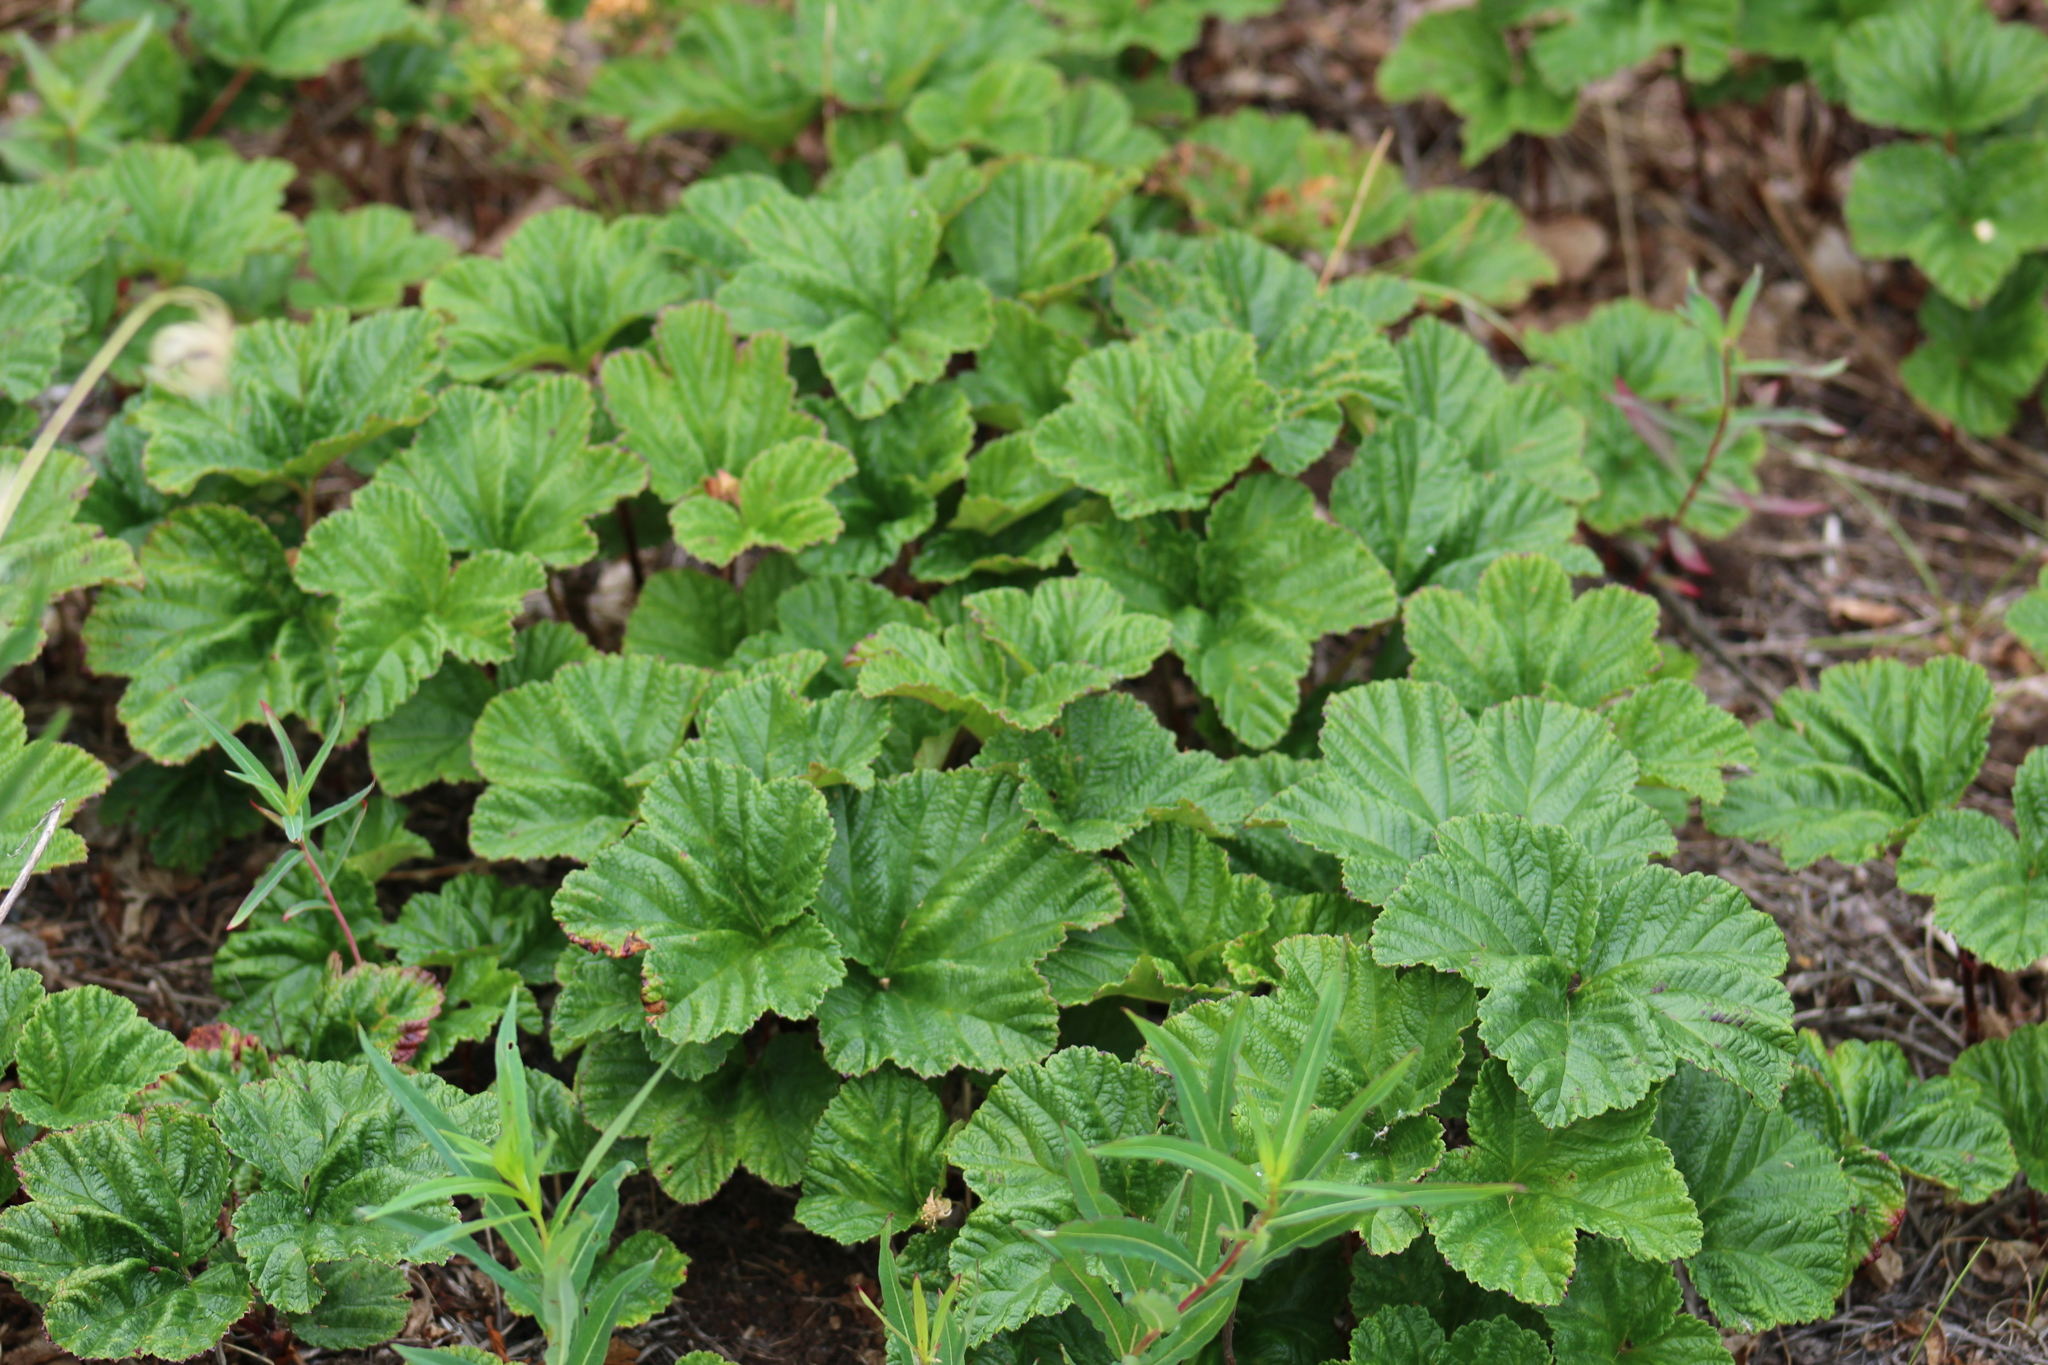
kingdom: Plantae
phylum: Tracheophyta
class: Magnoliopsida
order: Rosales
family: Rosaceae
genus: Rubus
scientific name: Rubus chamaemorus
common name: Cloudberry
